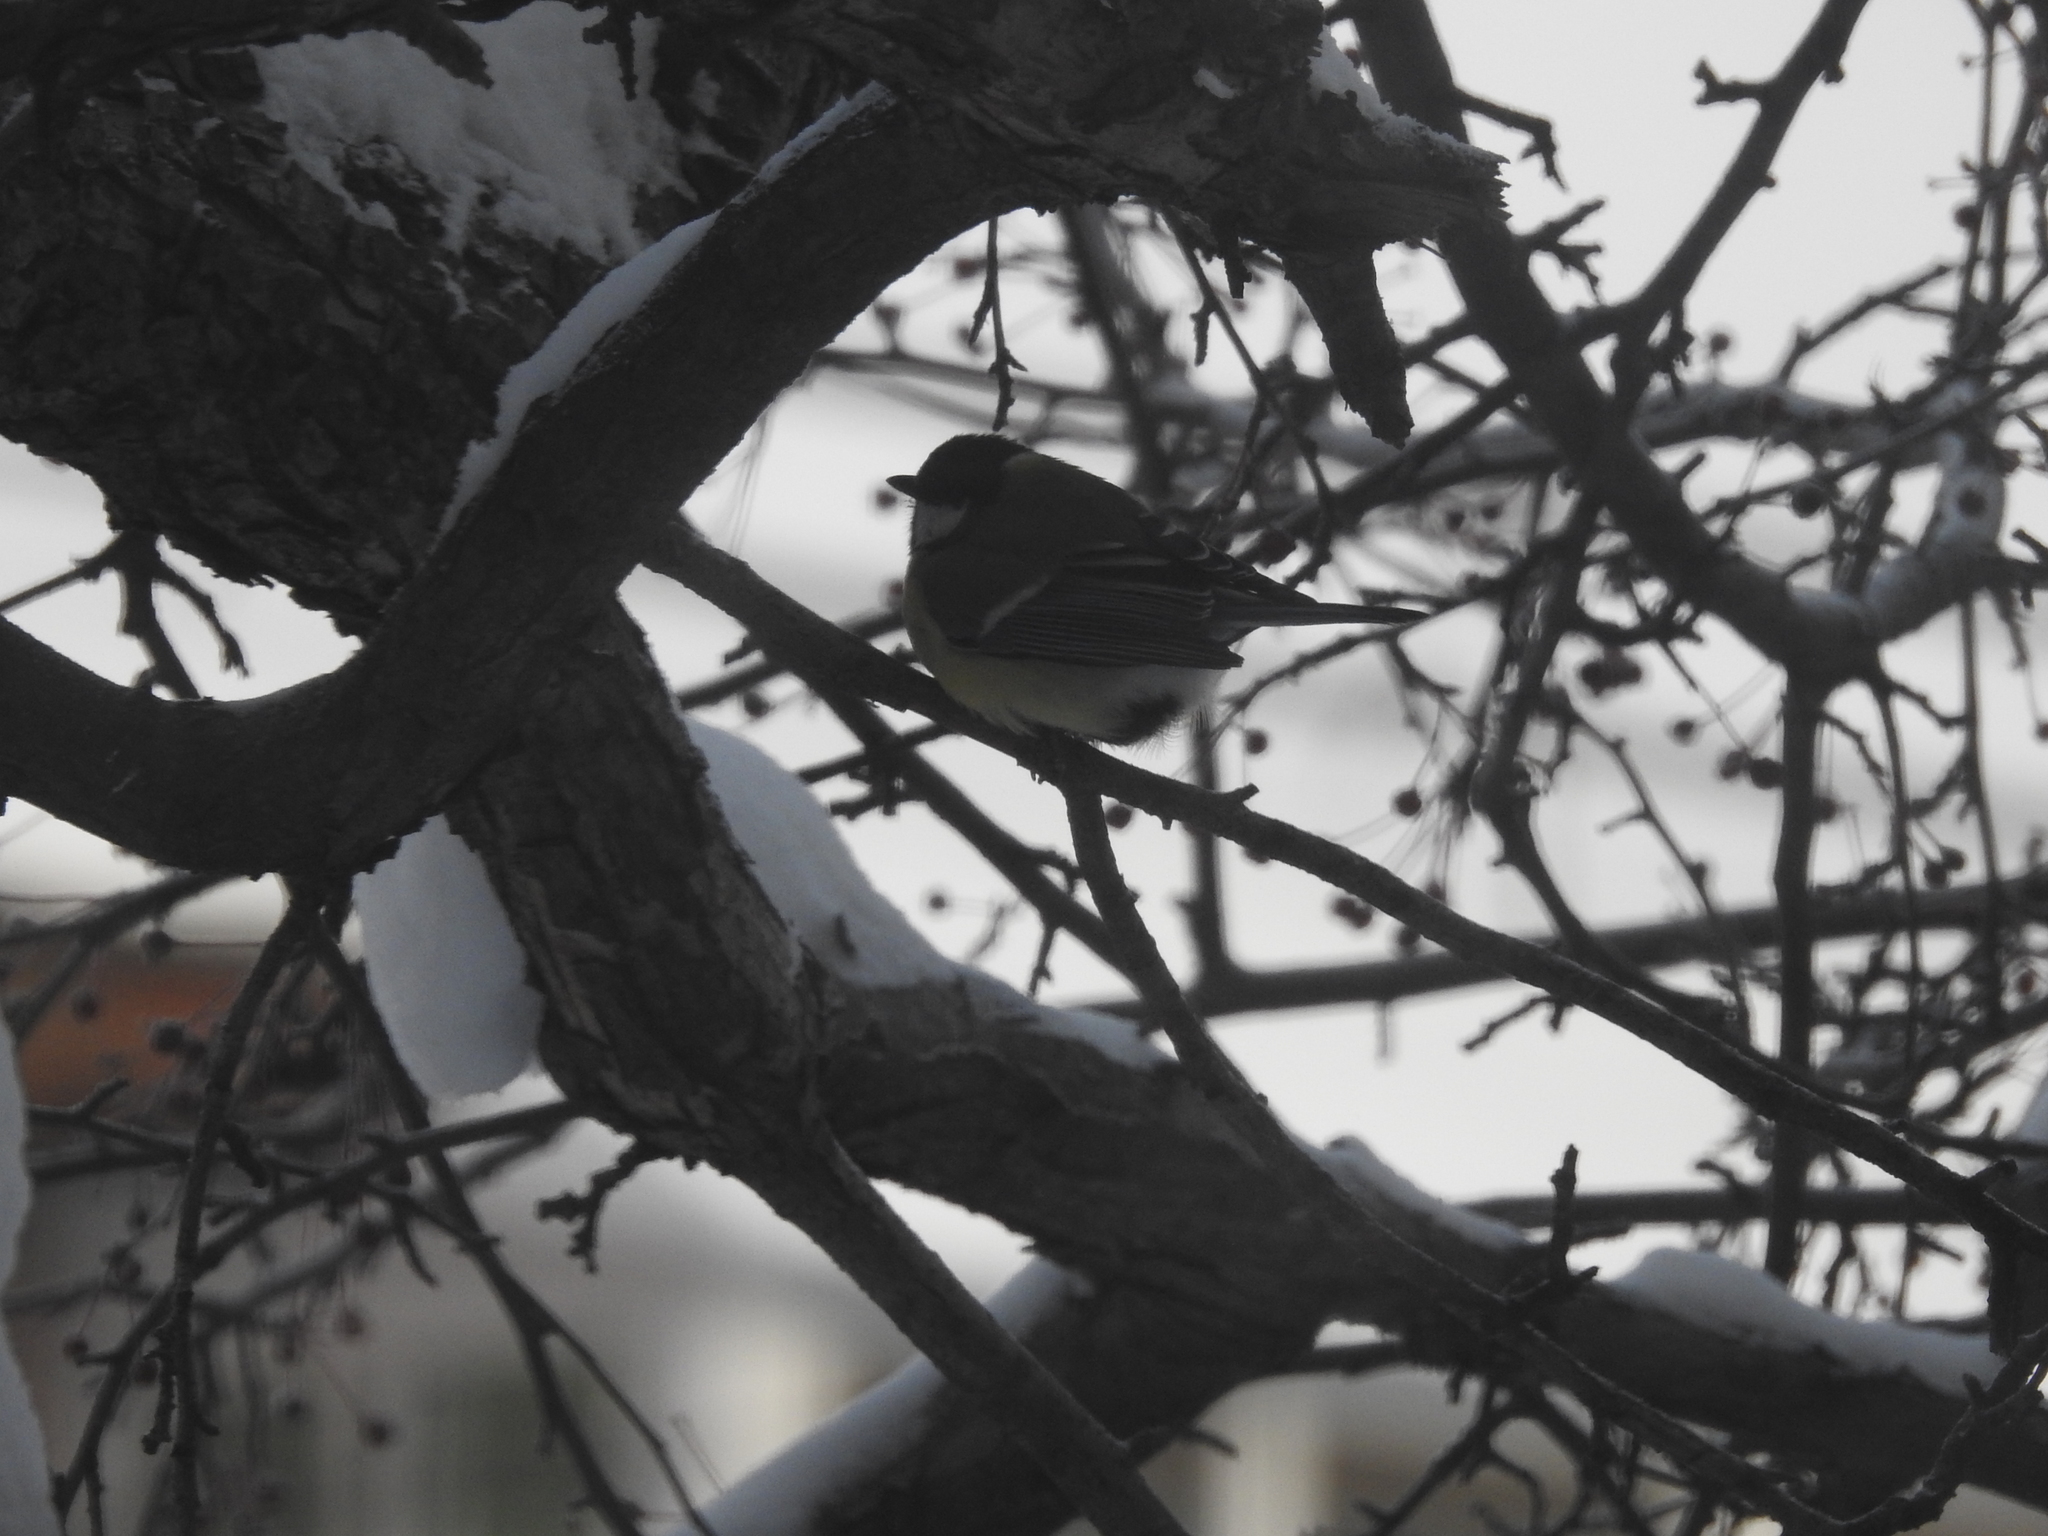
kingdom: Animalia
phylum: Chordata
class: Aves
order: Passeriformes
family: Paridae
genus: Parus
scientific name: Parus major
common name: Great tit
